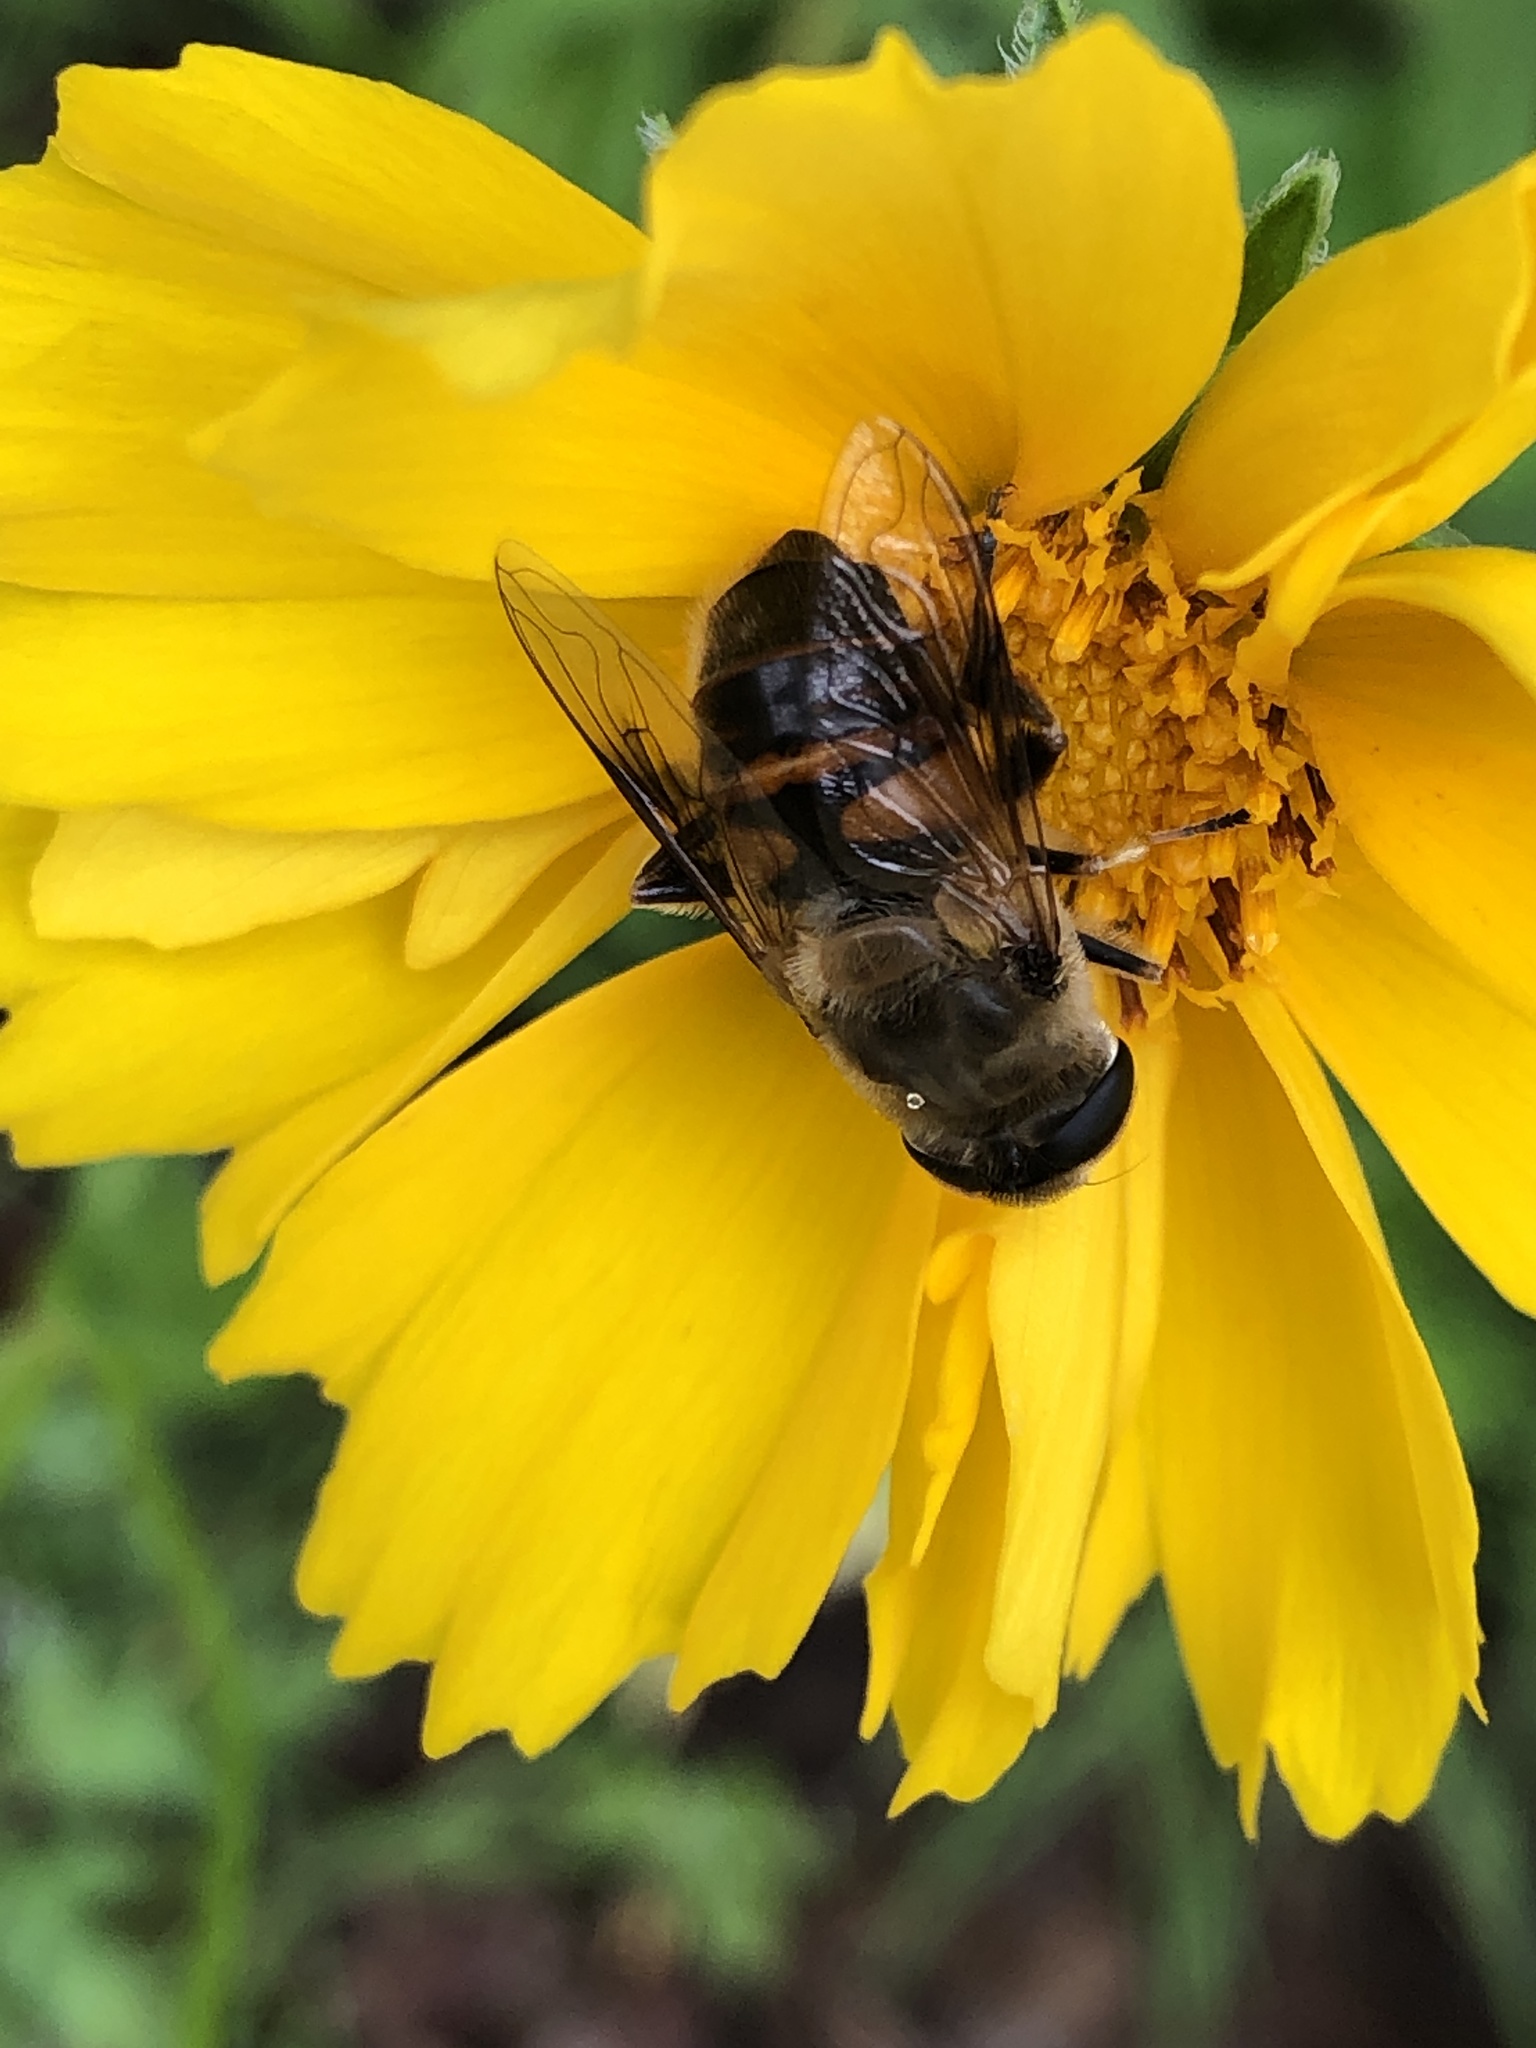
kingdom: Animalia
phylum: Arthropoda
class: Insecta
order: Diptera
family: Syrphidae
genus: Eristalis
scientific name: Eristalis tenax
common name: Drone fly
